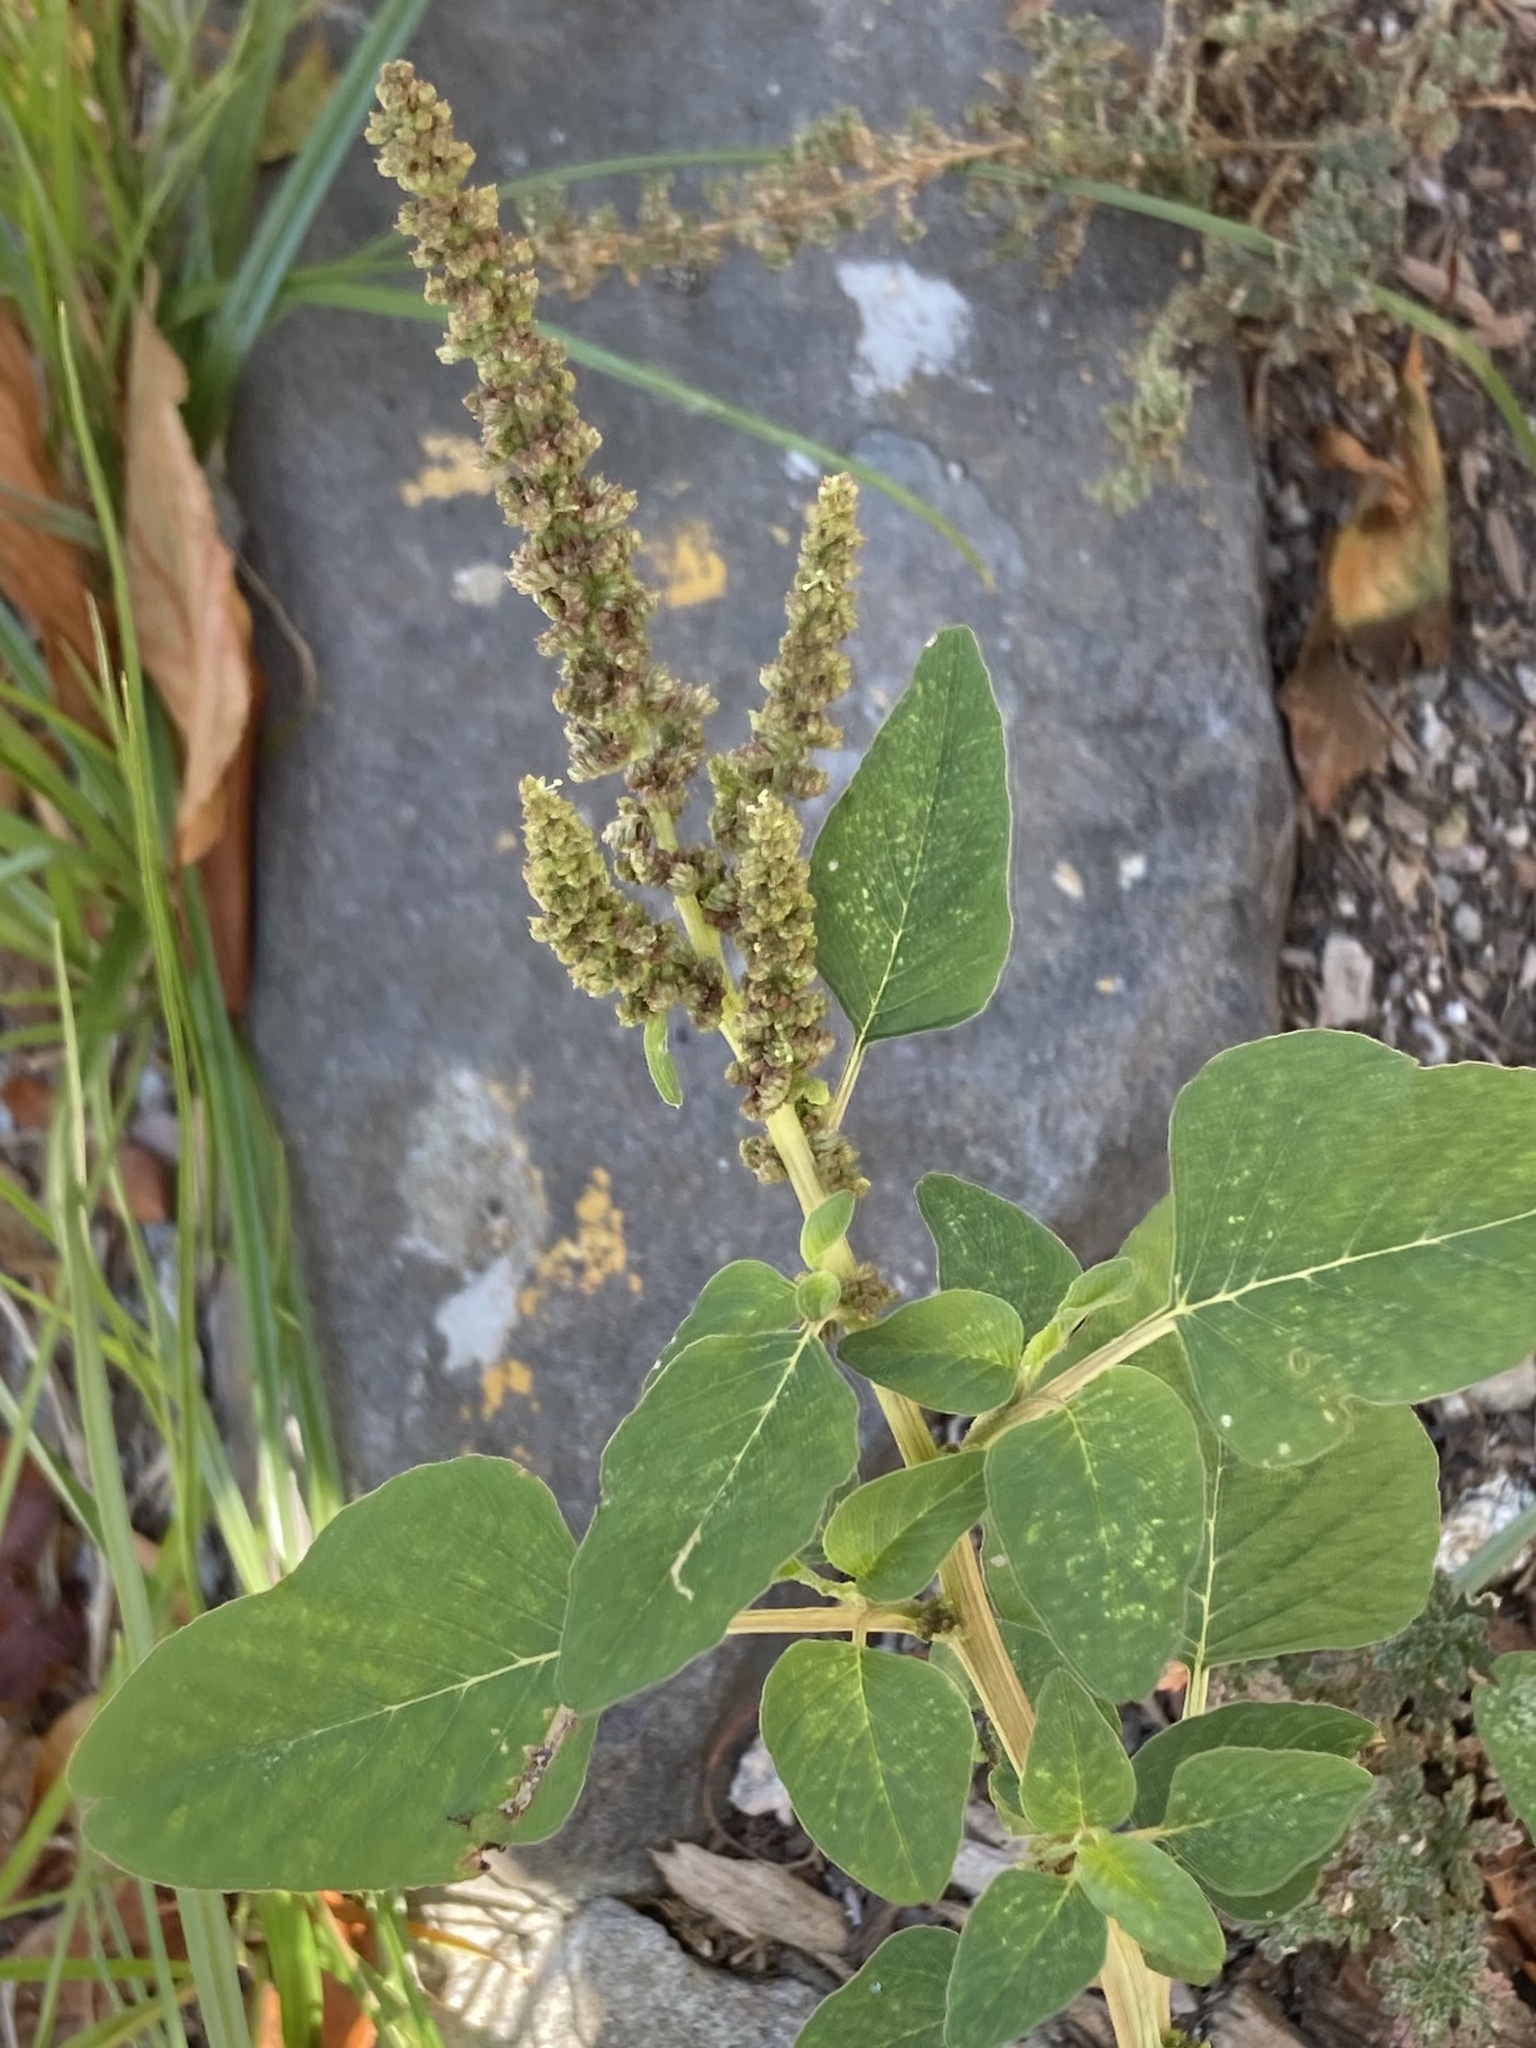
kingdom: Plantae
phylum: Tracheophyta
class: Magnoliopsida
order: Caryophyllales
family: Amaranthaceae
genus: Amaranthus
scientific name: Amaranthus viridis
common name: Slender amaranth
